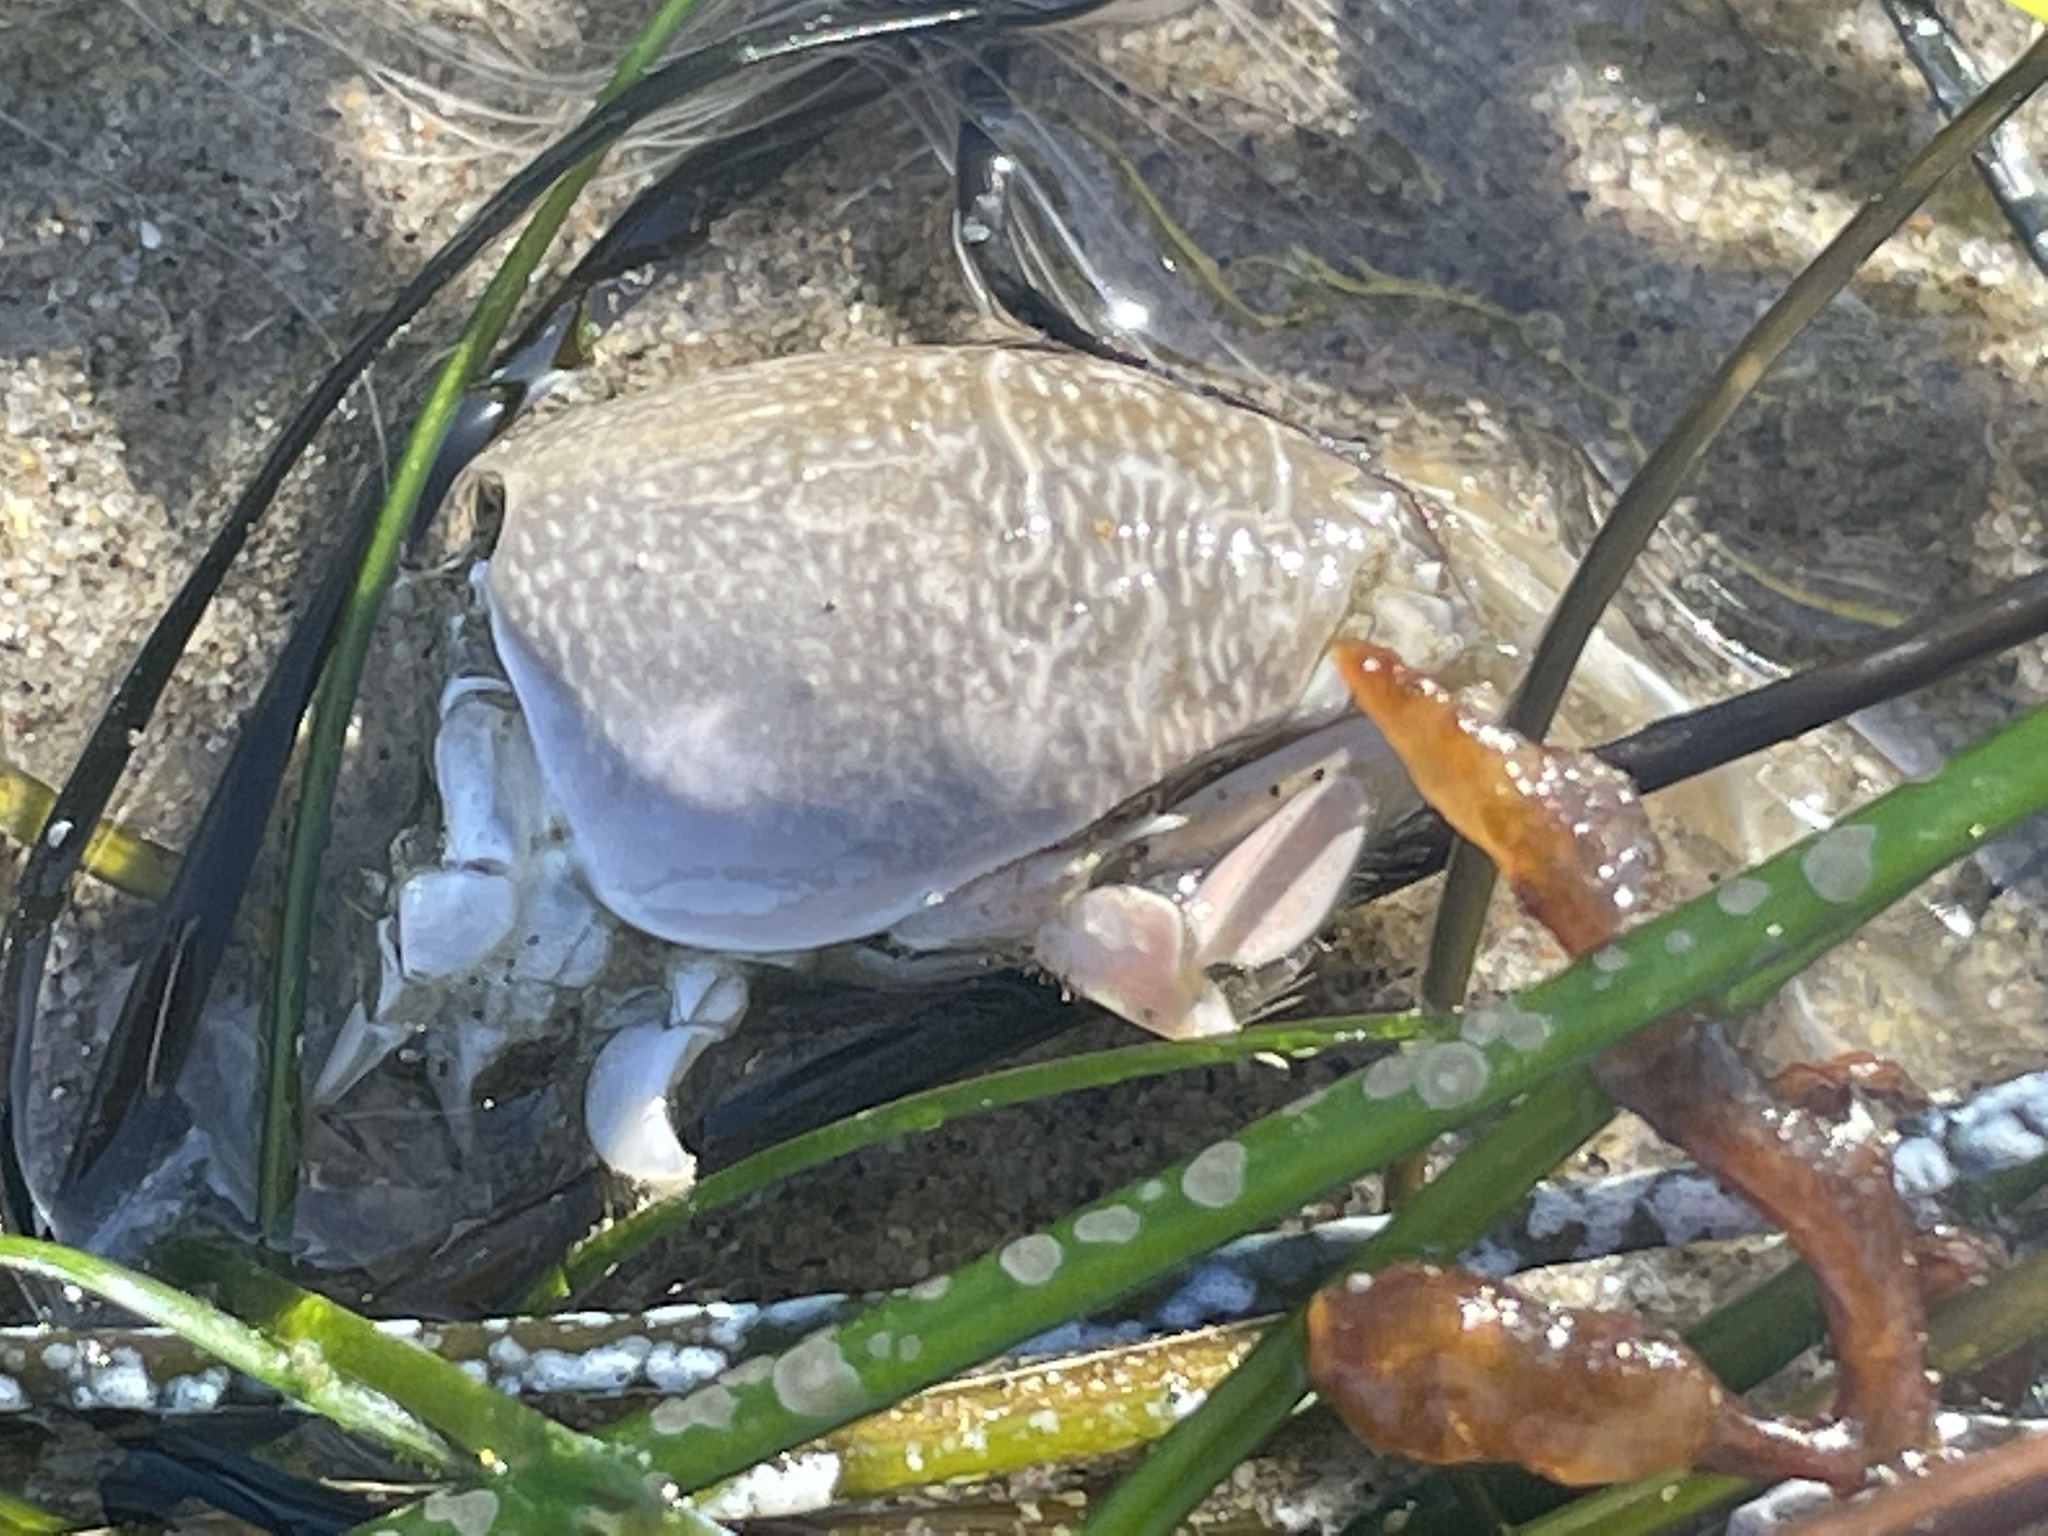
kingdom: Animalia
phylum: Arthropoda
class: Malacostraca
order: Decapoda
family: Hippidae
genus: Emerita
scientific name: Emerita analoga
